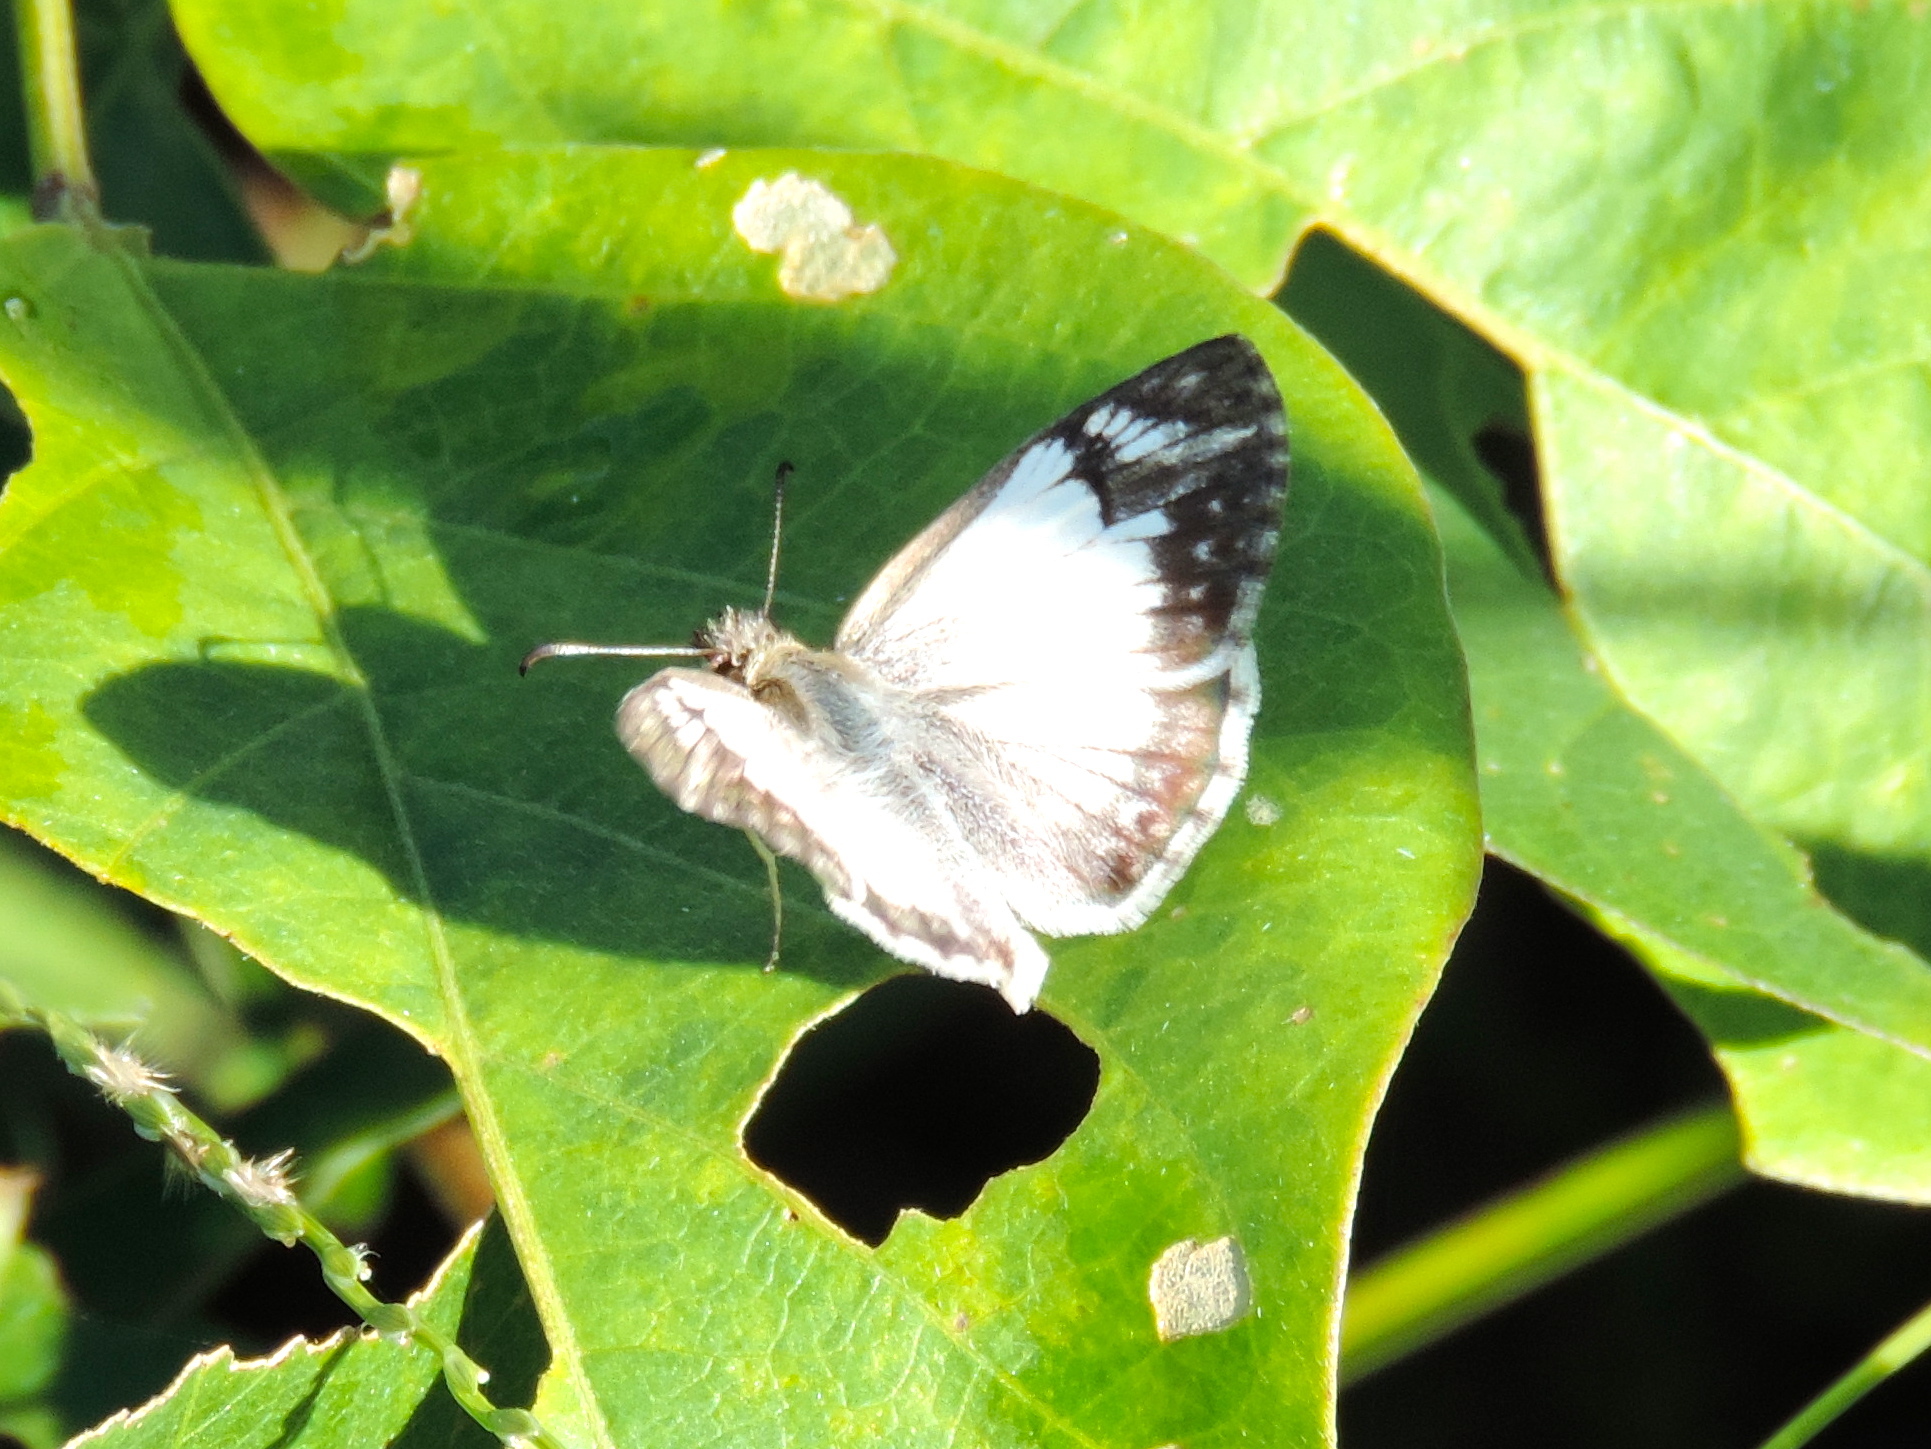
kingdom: Animalia
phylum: Arthropoda
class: Insecta
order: Lepidoptera
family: Hesperiidae
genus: Heliopetes
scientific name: Heliopetes laviana
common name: Laviana white-skipper
